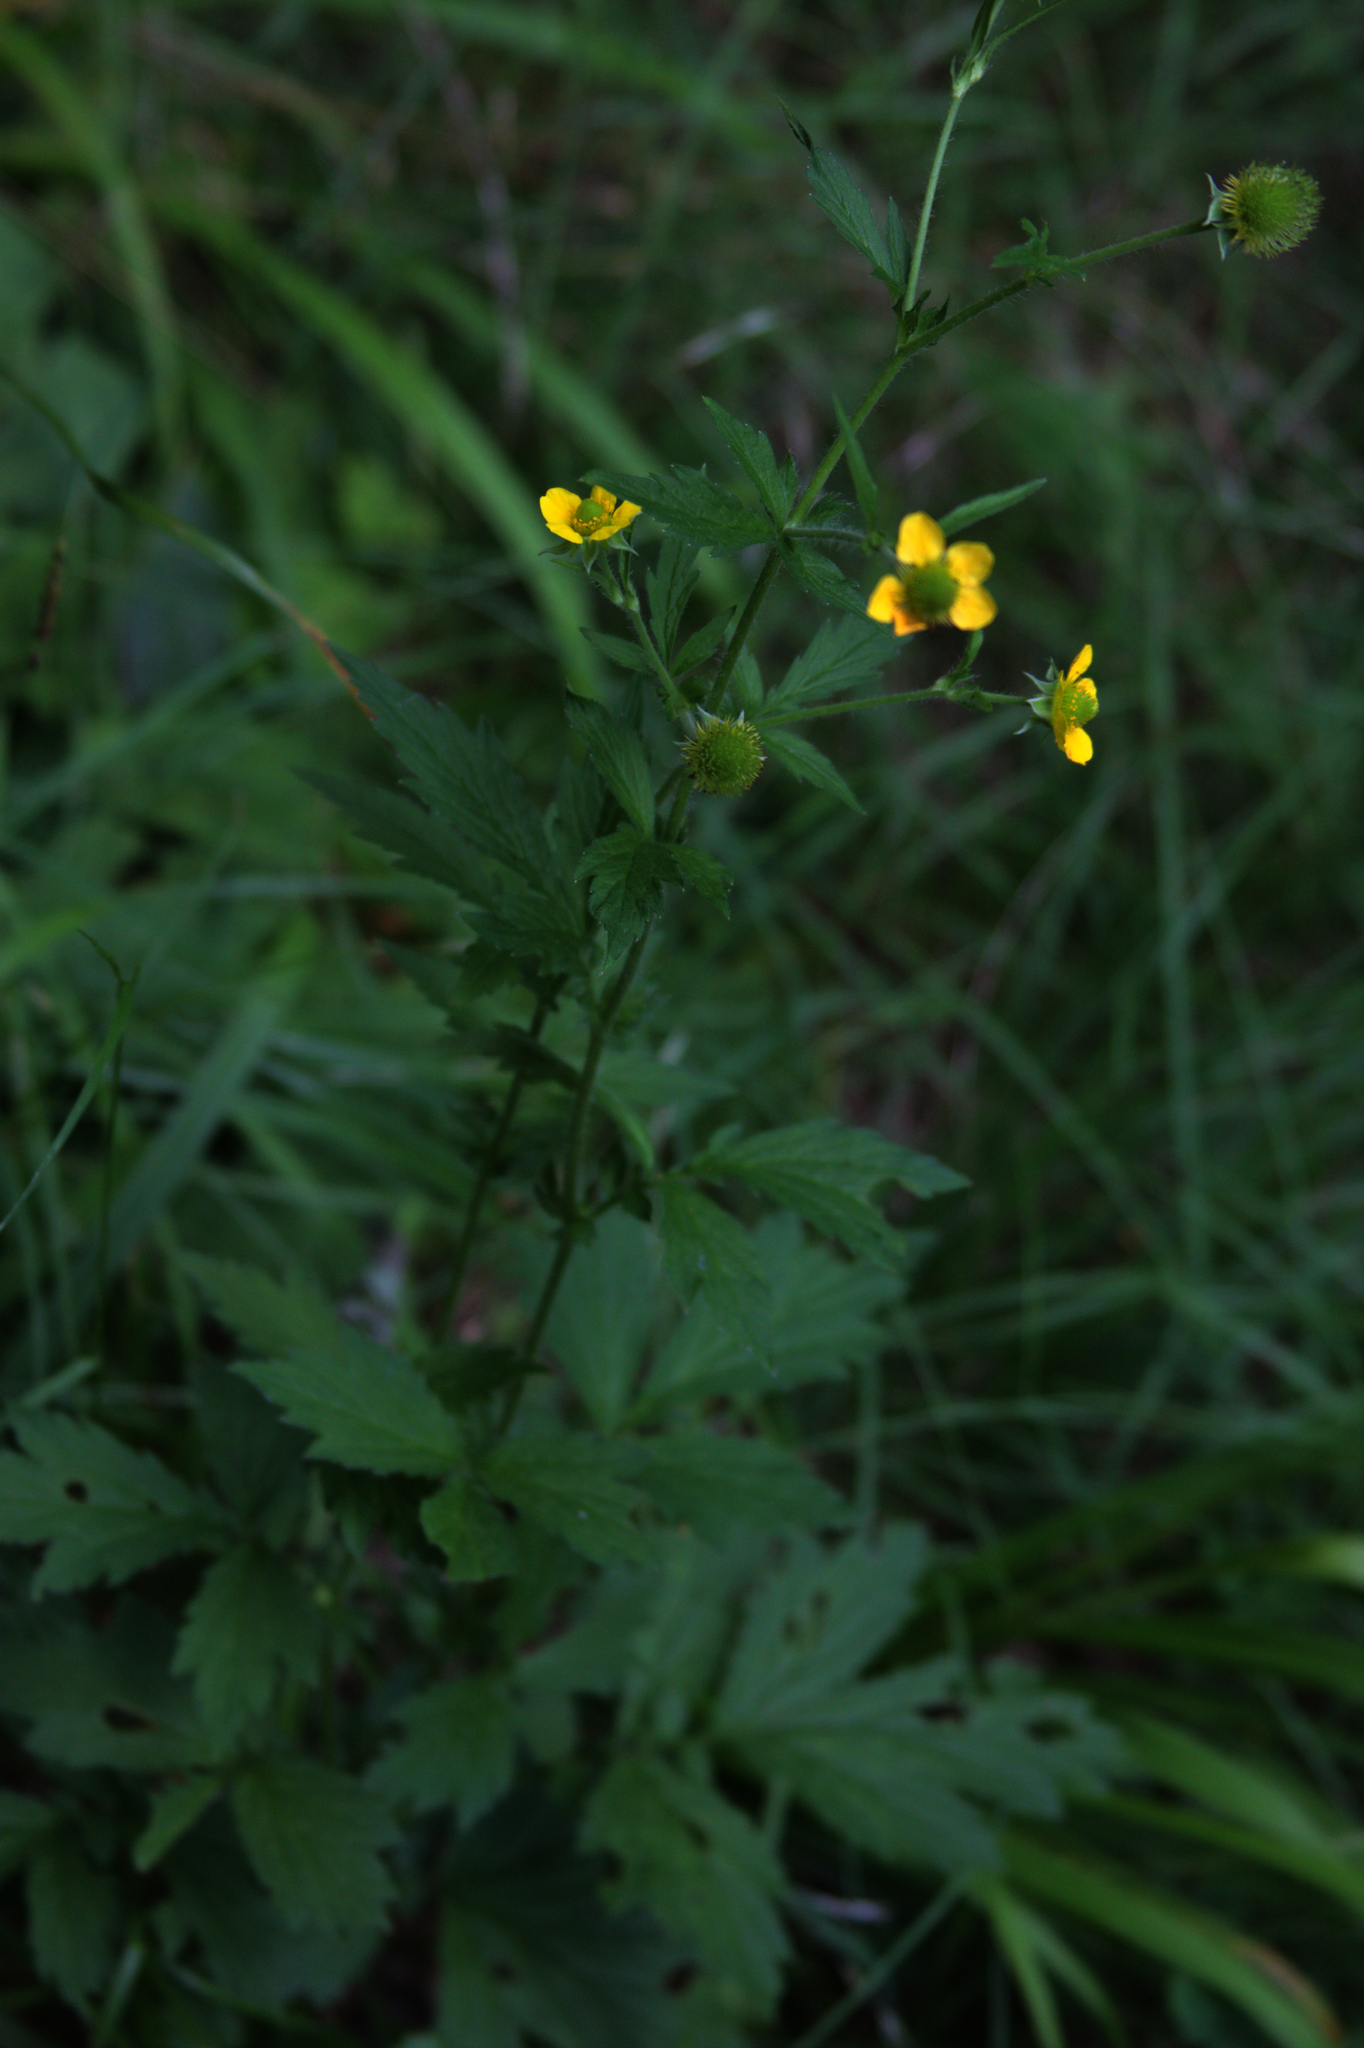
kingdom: Plantae
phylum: Tracheophyta
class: Magnoliopsida
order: Rosales
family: Rosaceae
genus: Geum
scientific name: Geum aleppicum
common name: Yellow avens
